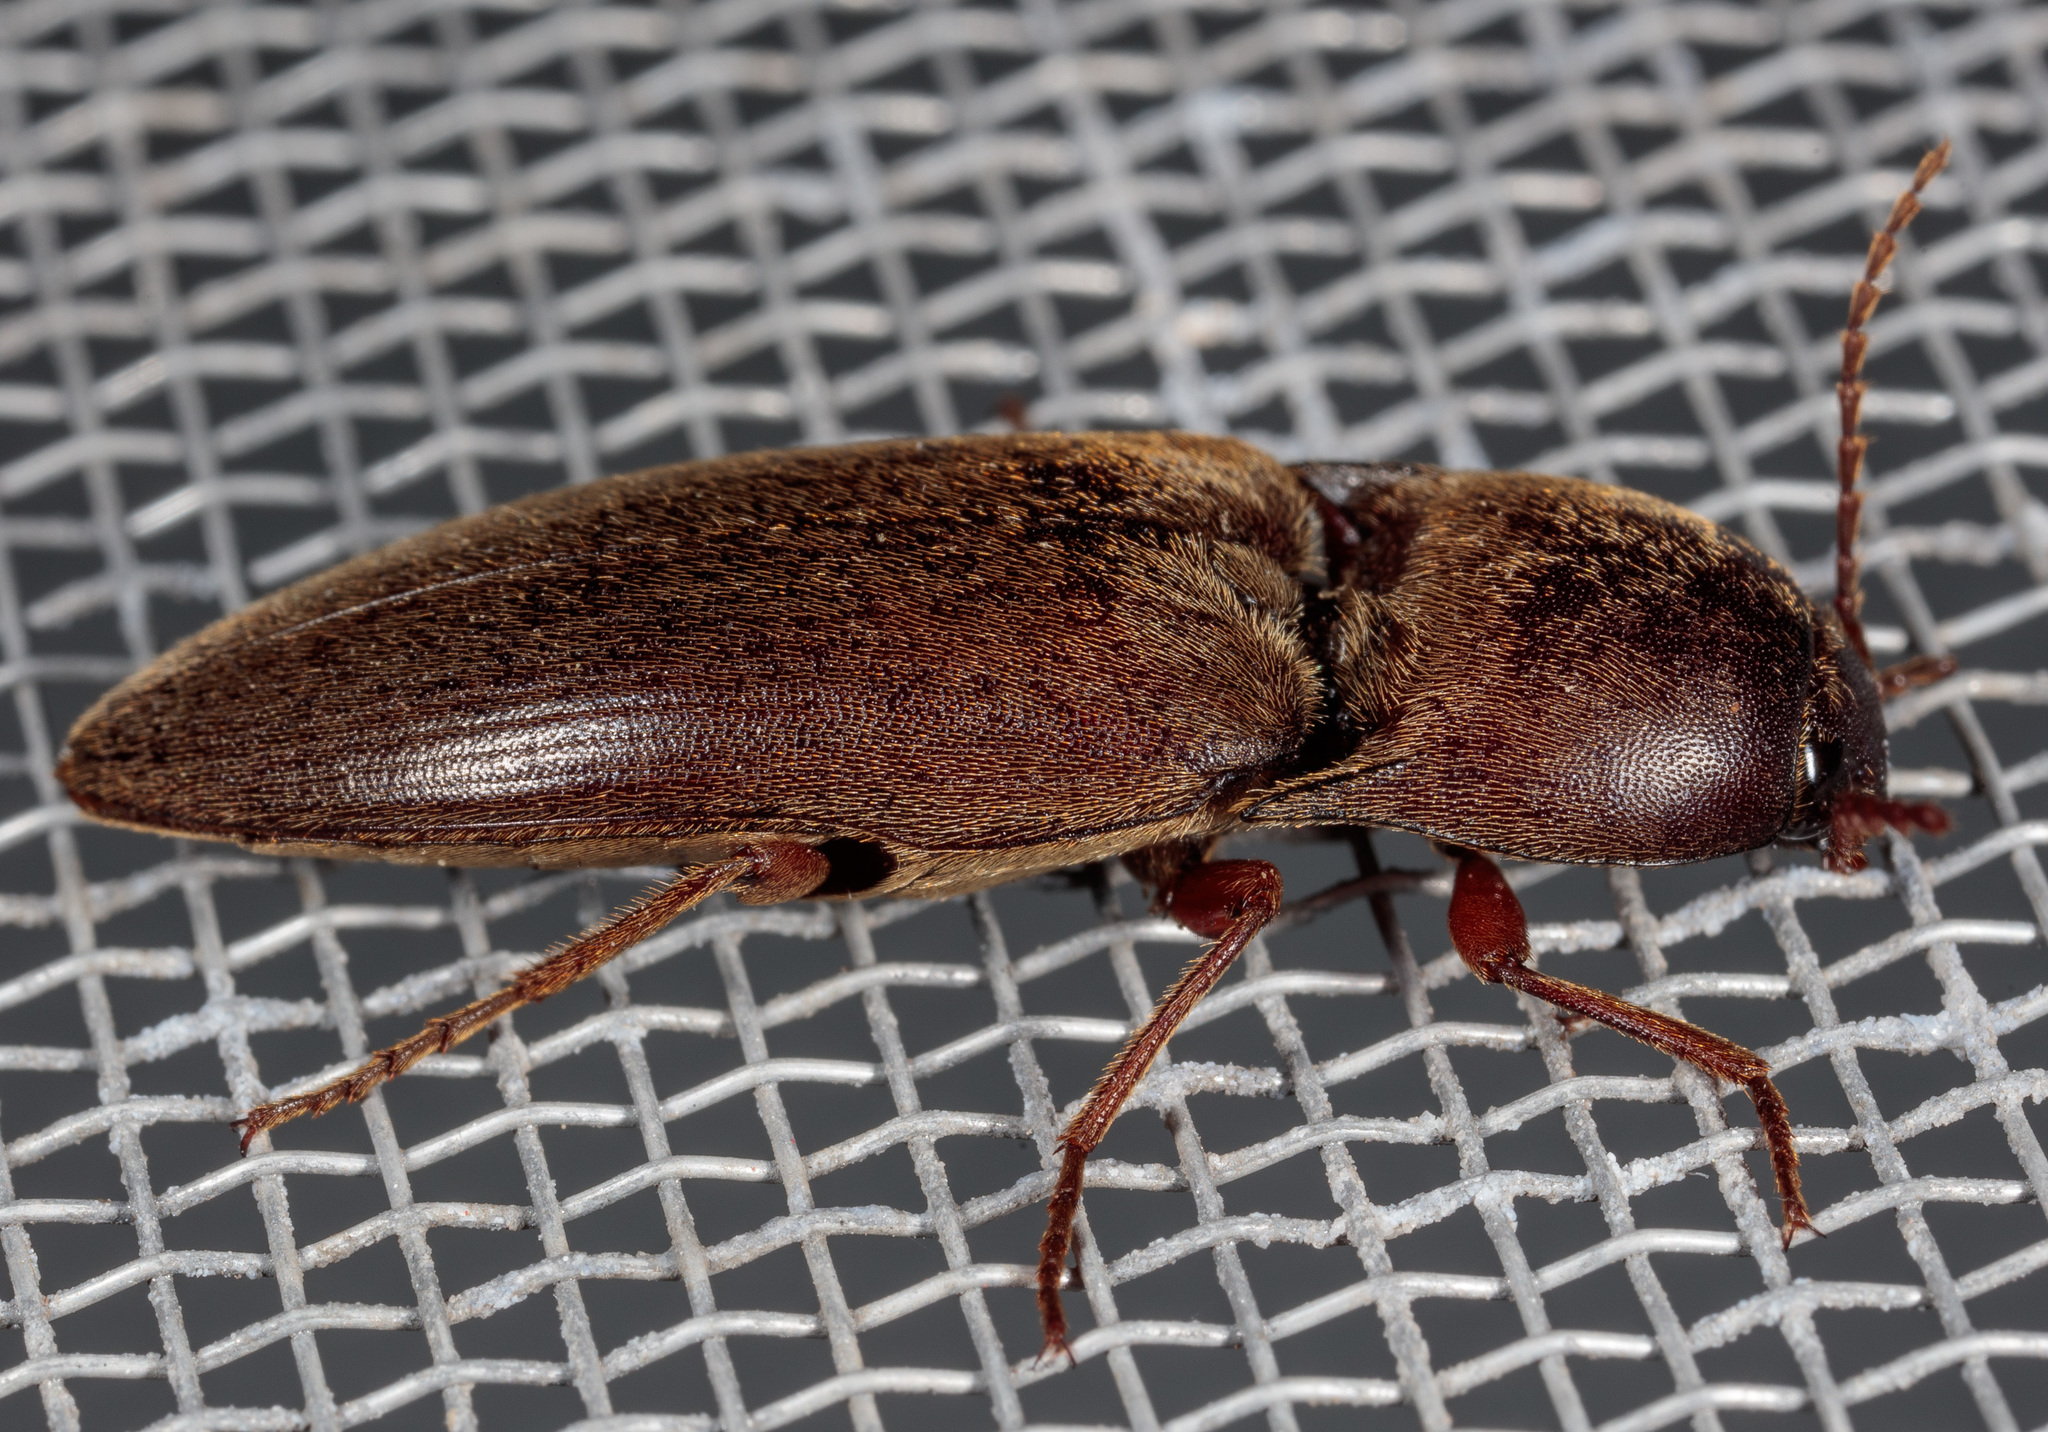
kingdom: Animalia
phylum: Arthropoda
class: Insecta
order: Coleoptera
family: Elateridae
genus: Diplostethus
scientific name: Diplostethus
